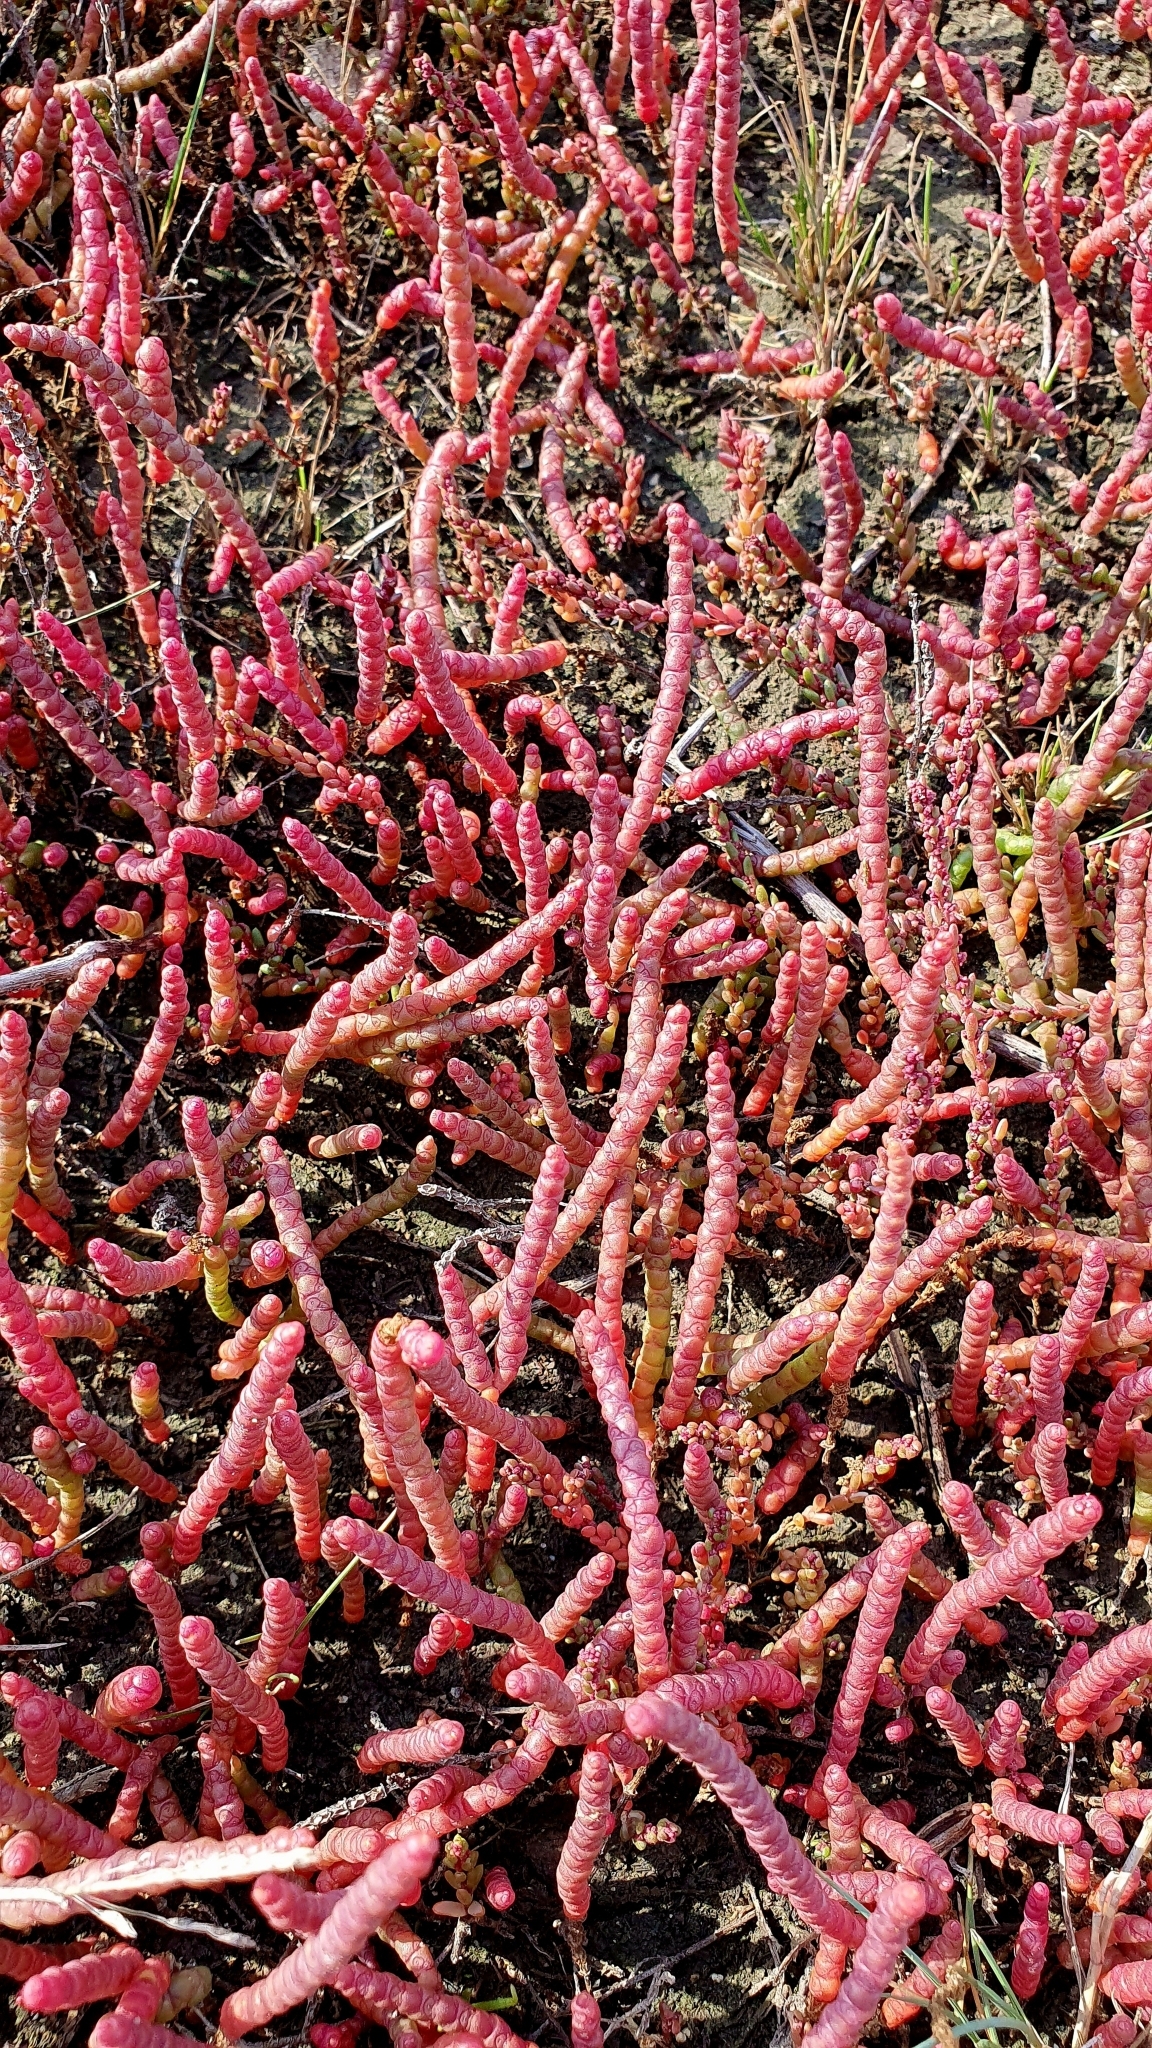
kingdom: Plantae
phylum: Tracheophyta
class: Magnoliopsida
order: Caryophyllales
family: Amaranthaceae
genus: Salicornia
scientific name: Salicornia perennans
